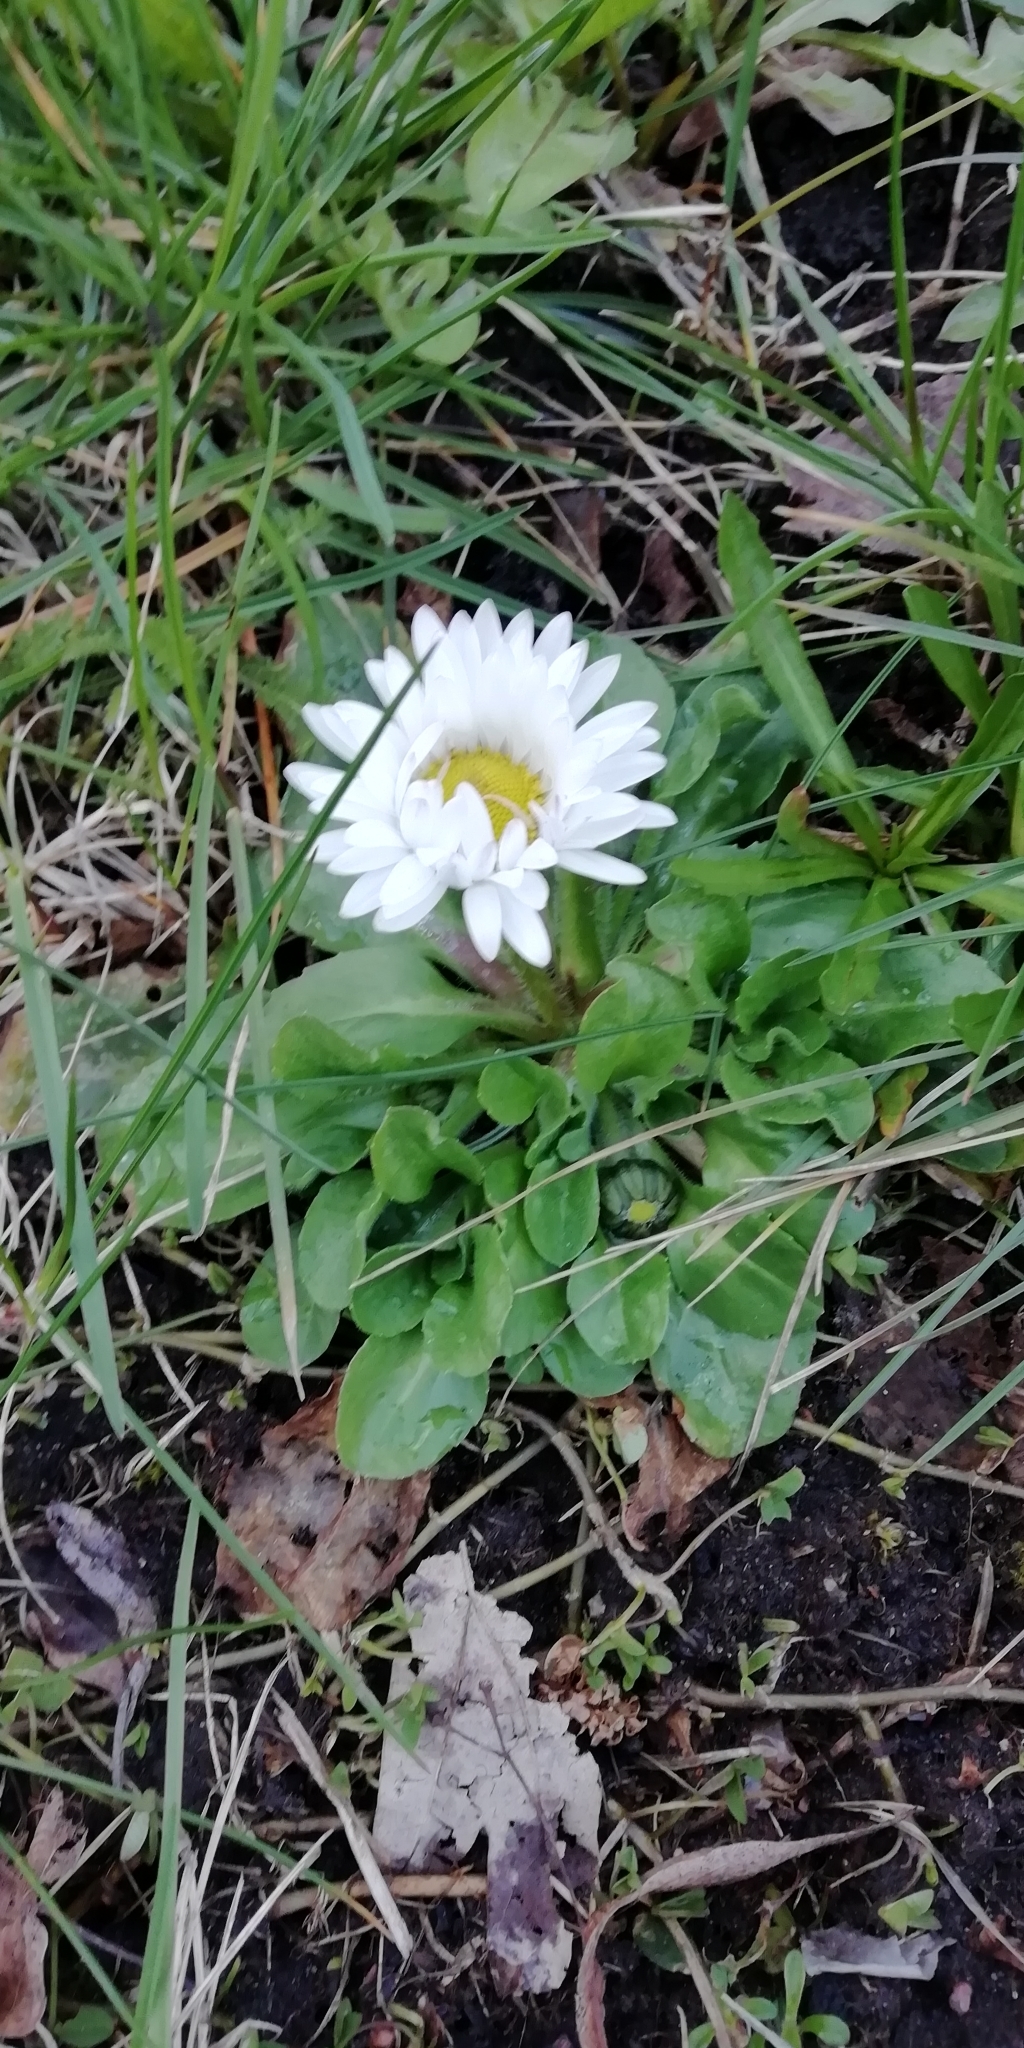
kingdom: Plantae
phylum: Tracheophyta
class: Magnoliopsida
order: Asterales
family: Asteraceae
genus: Bellis
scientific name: Bellis perennis
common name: Lawndaisy
